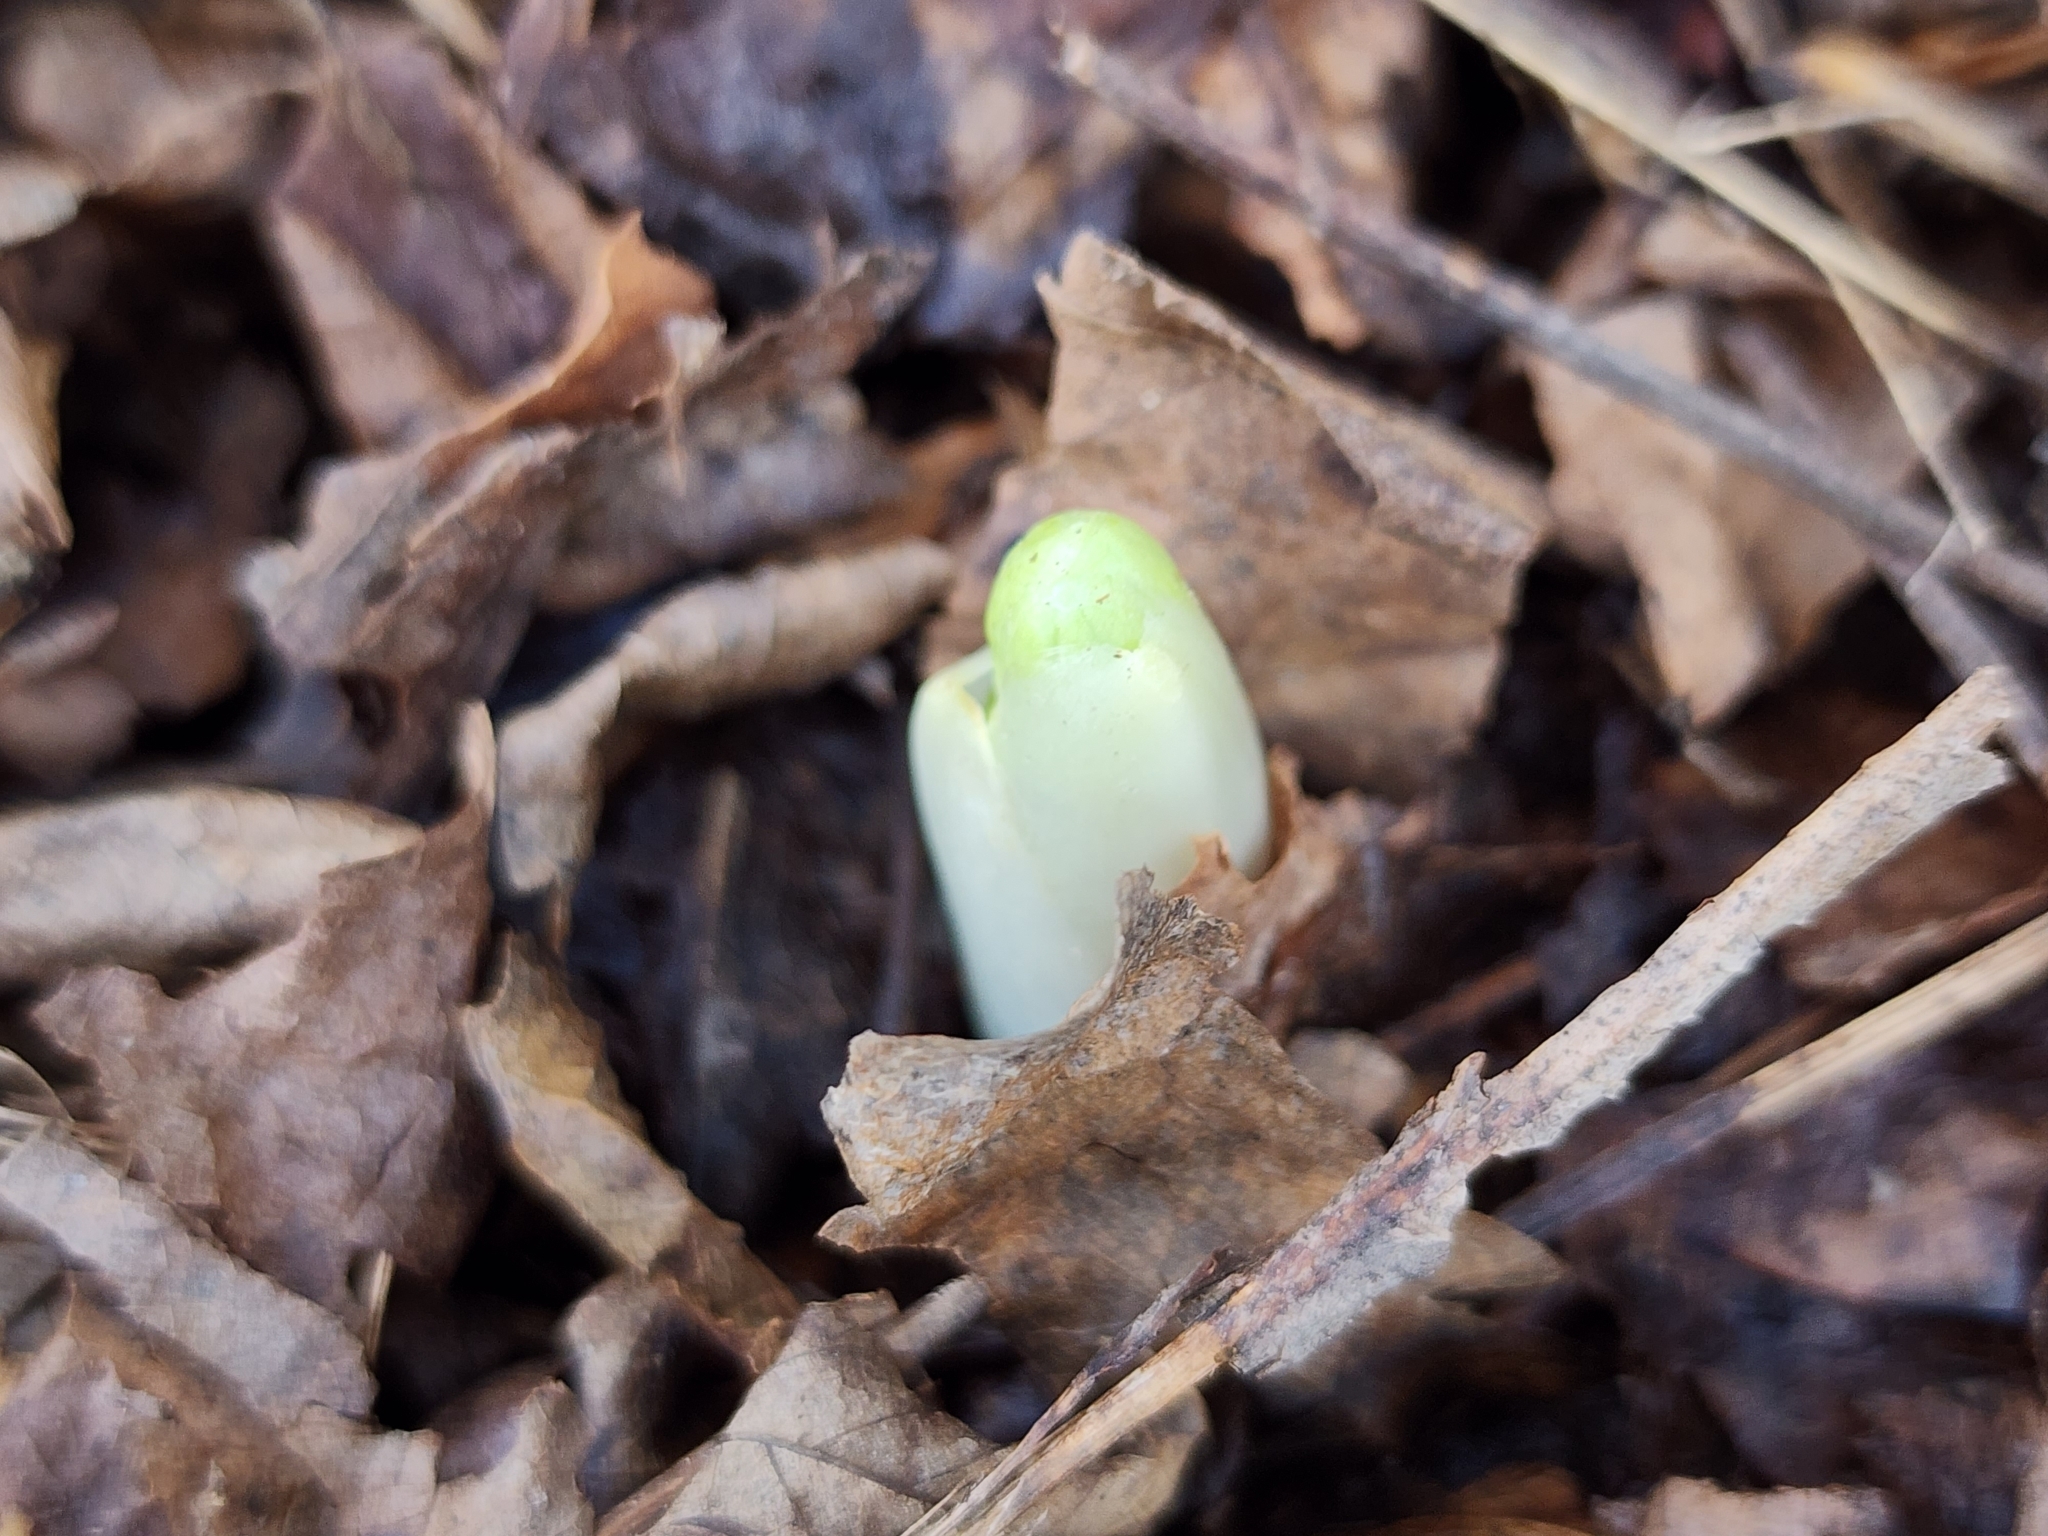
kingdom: Plantae
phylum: Tracheophyta
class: Magnoliopsida
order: Ranunculales
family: Berberidaceae
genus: Podophyllum
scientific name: Podophyllum peltatum
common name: Wild mandrake
